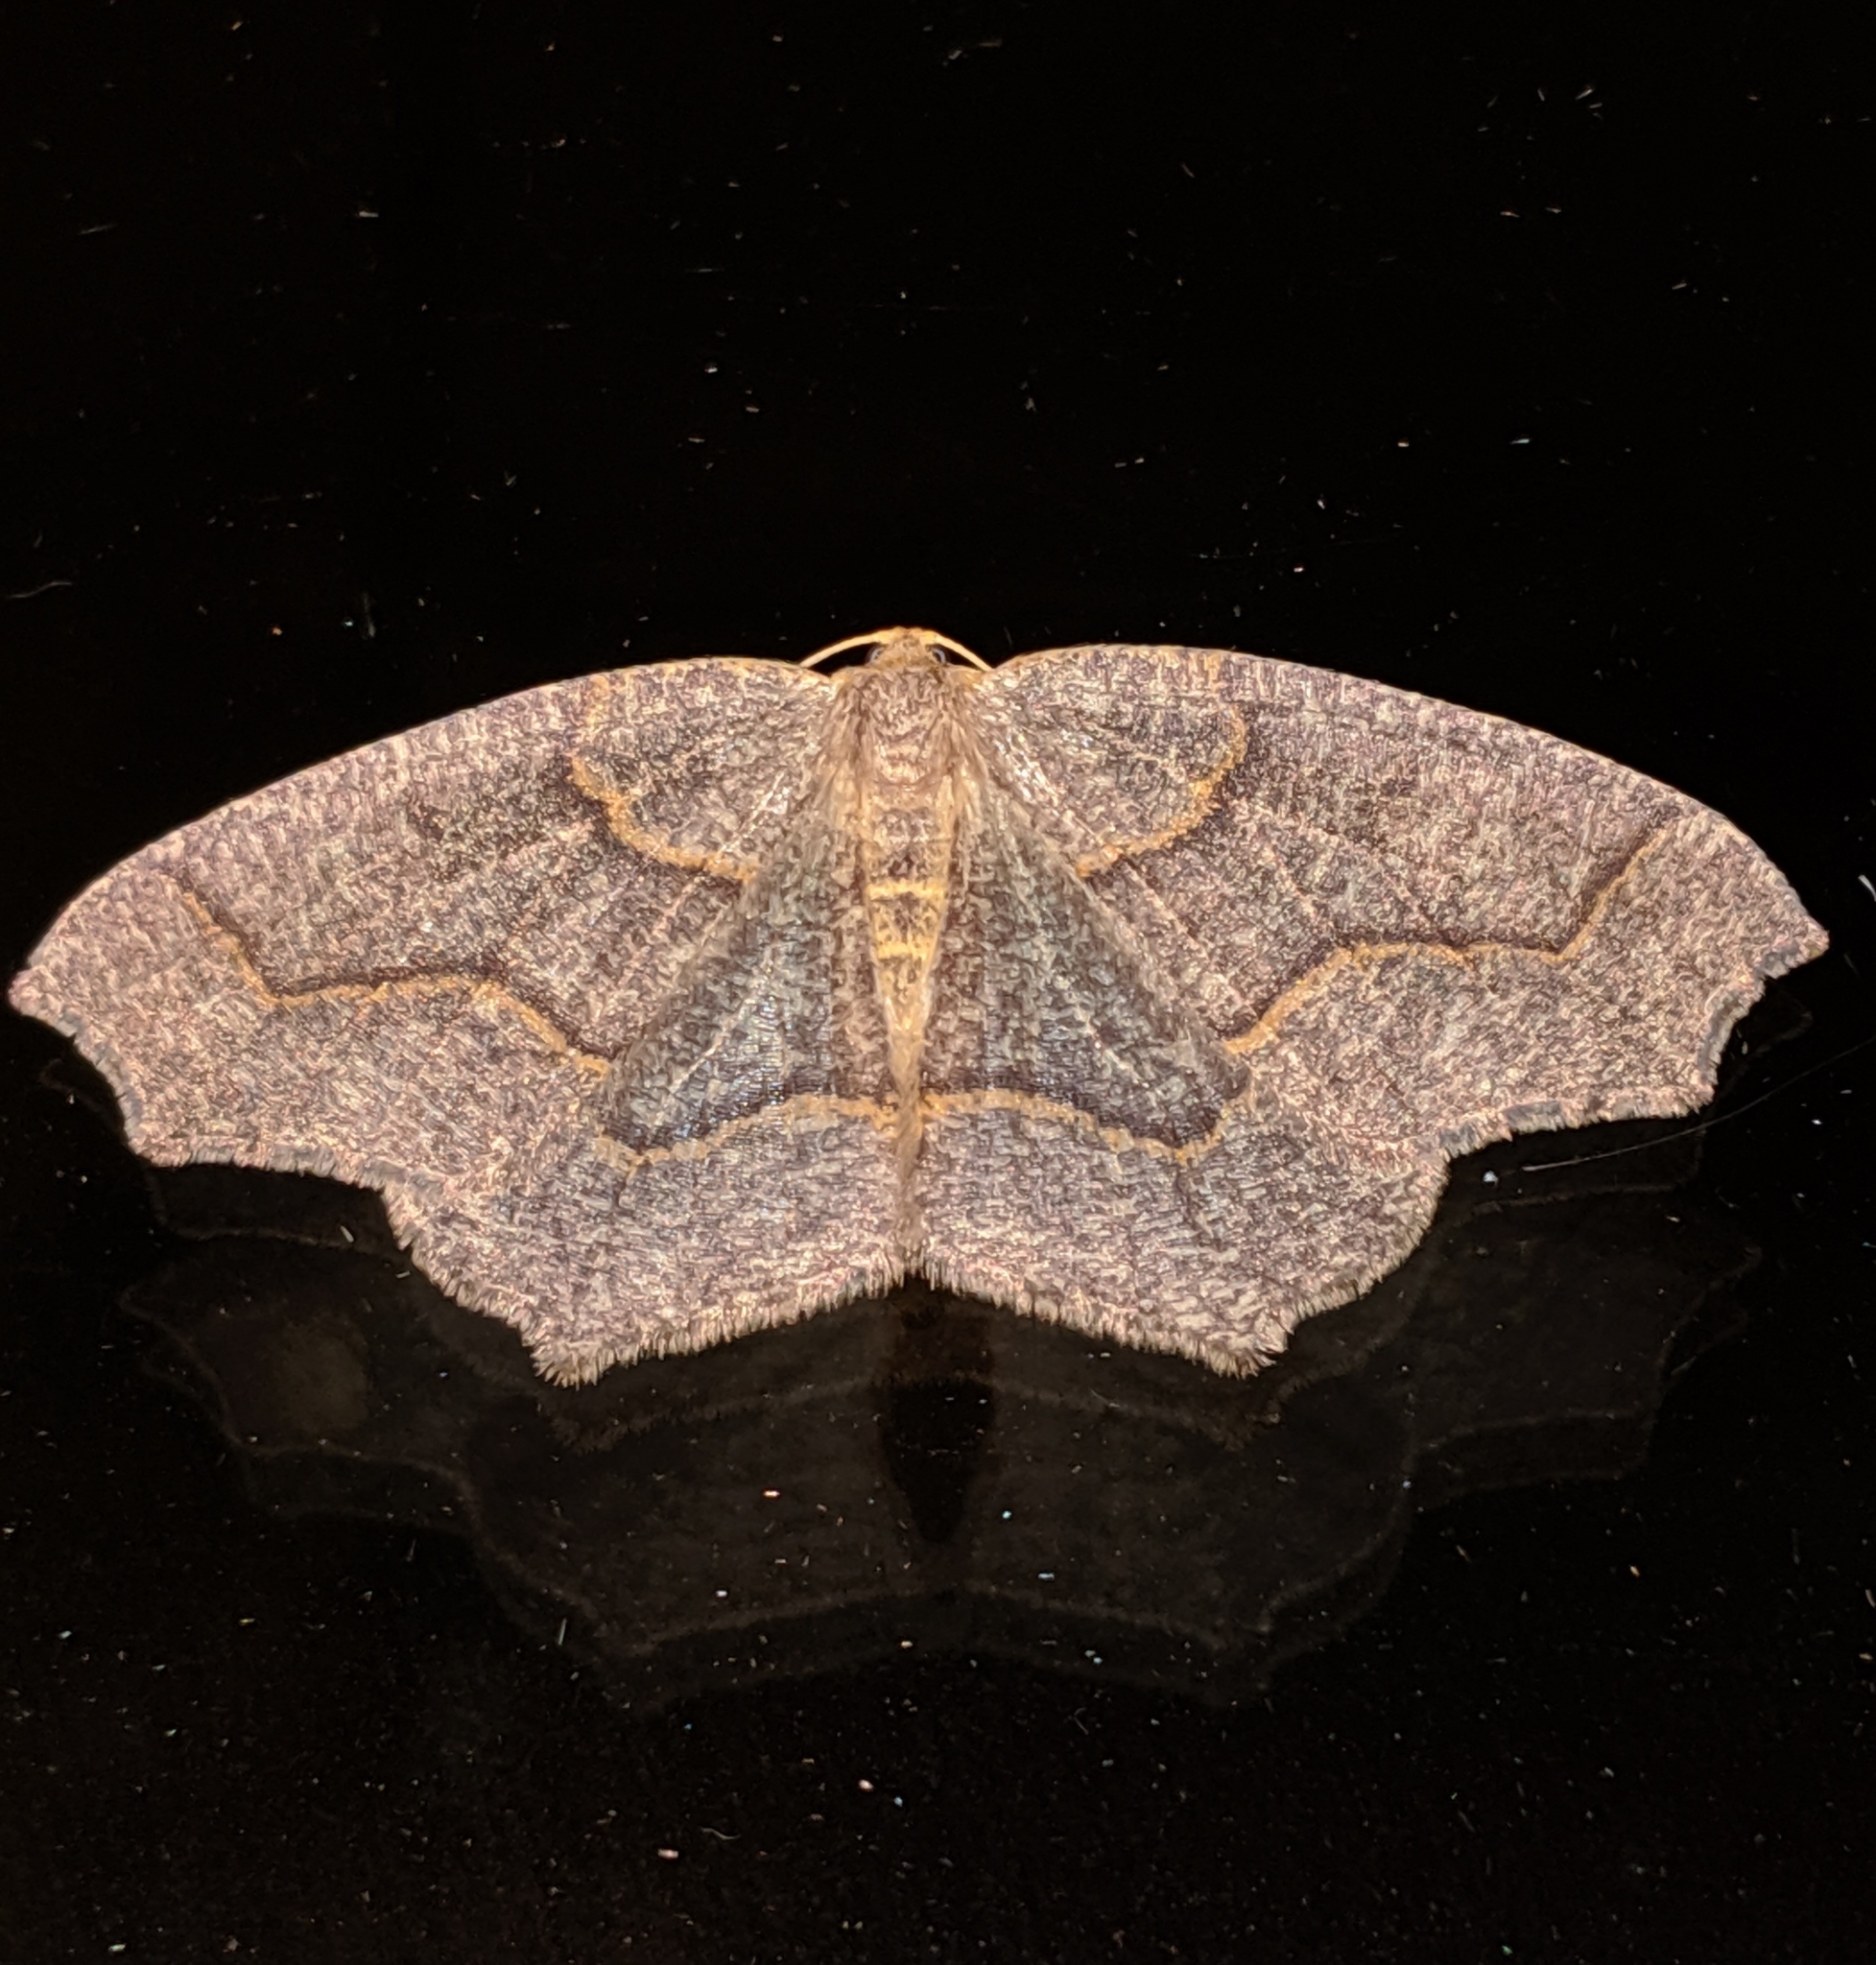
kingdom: Animalia
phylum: Arthropoda
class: Insecta
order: Lepidoptera
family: Geometridae
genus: Lambdina
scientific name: Lambdina fiscellaria
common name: Hemlock looper
